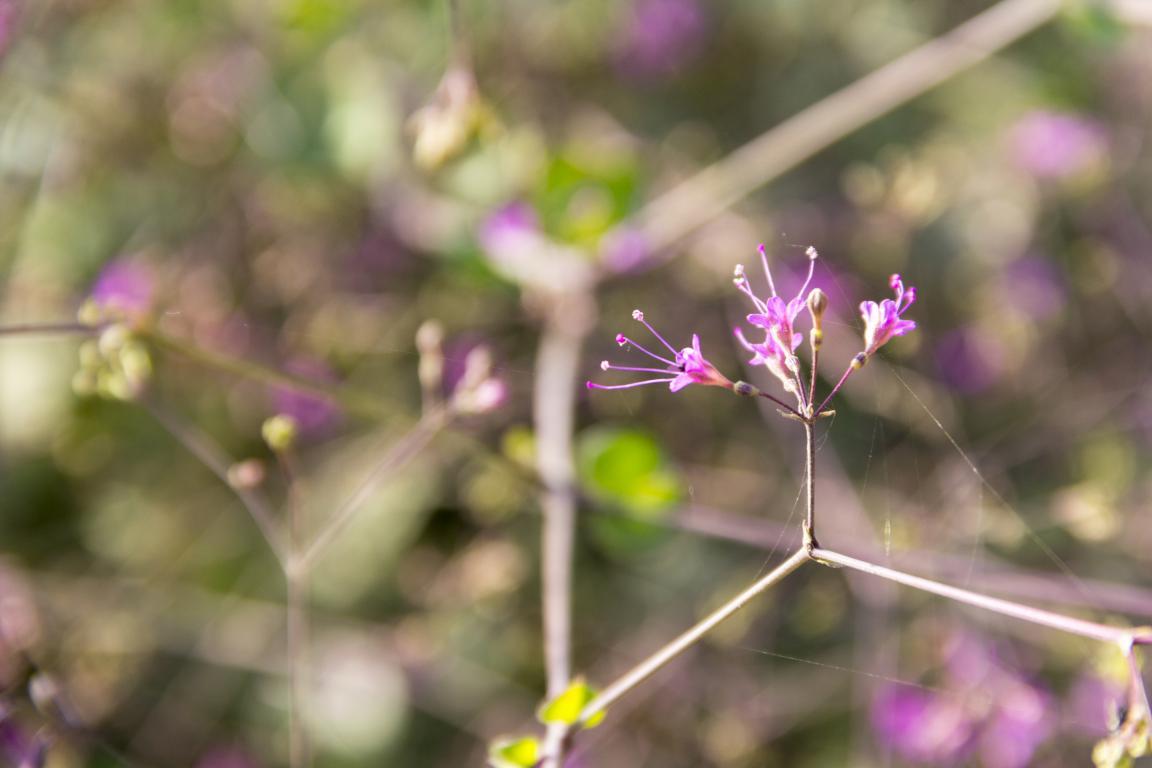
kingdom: Plantae
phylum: Tracheophyta
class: Magnoliopsida
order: Caryophyllales
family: Nyctaginaceae
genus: Commicarpus
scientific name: Commicarpus tuberosus
